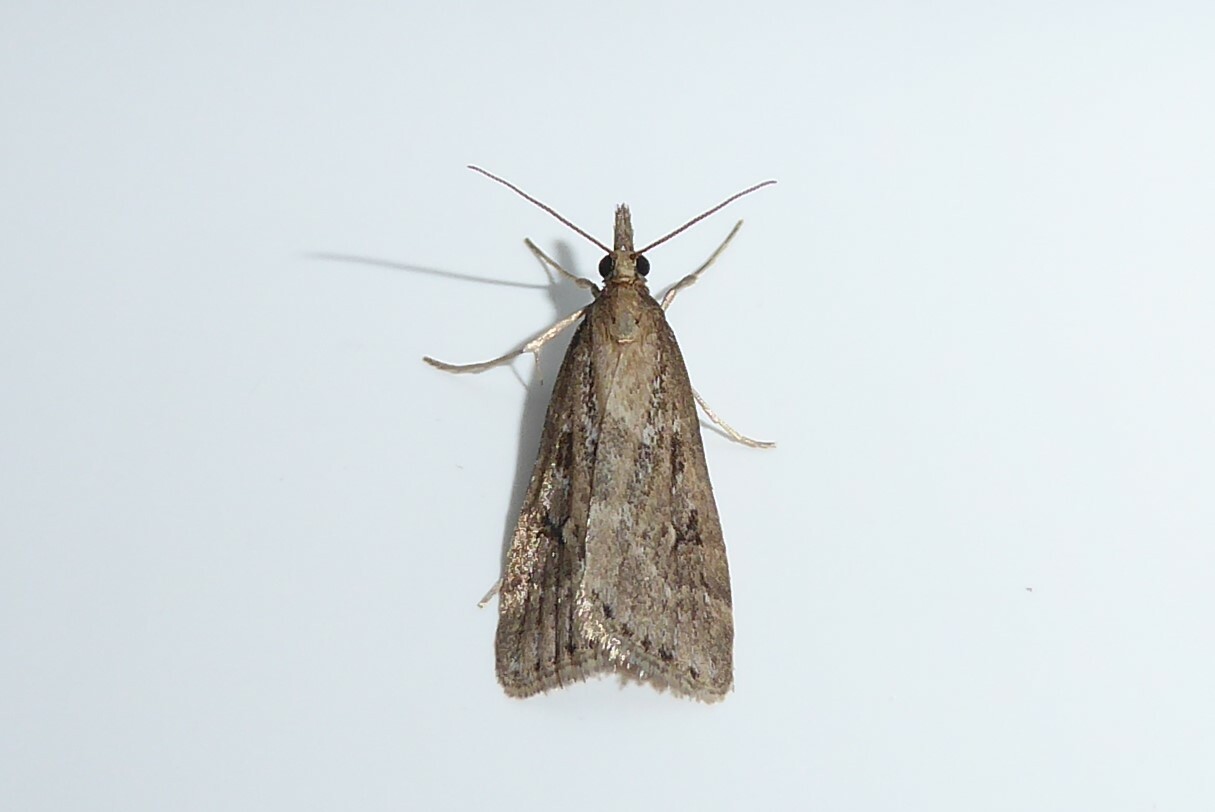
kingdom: Animalia
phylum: Arthropoda
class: Insecta
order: Lepidoptera
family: Crambidae
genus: Eudonia
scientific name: Eudonia octophora
